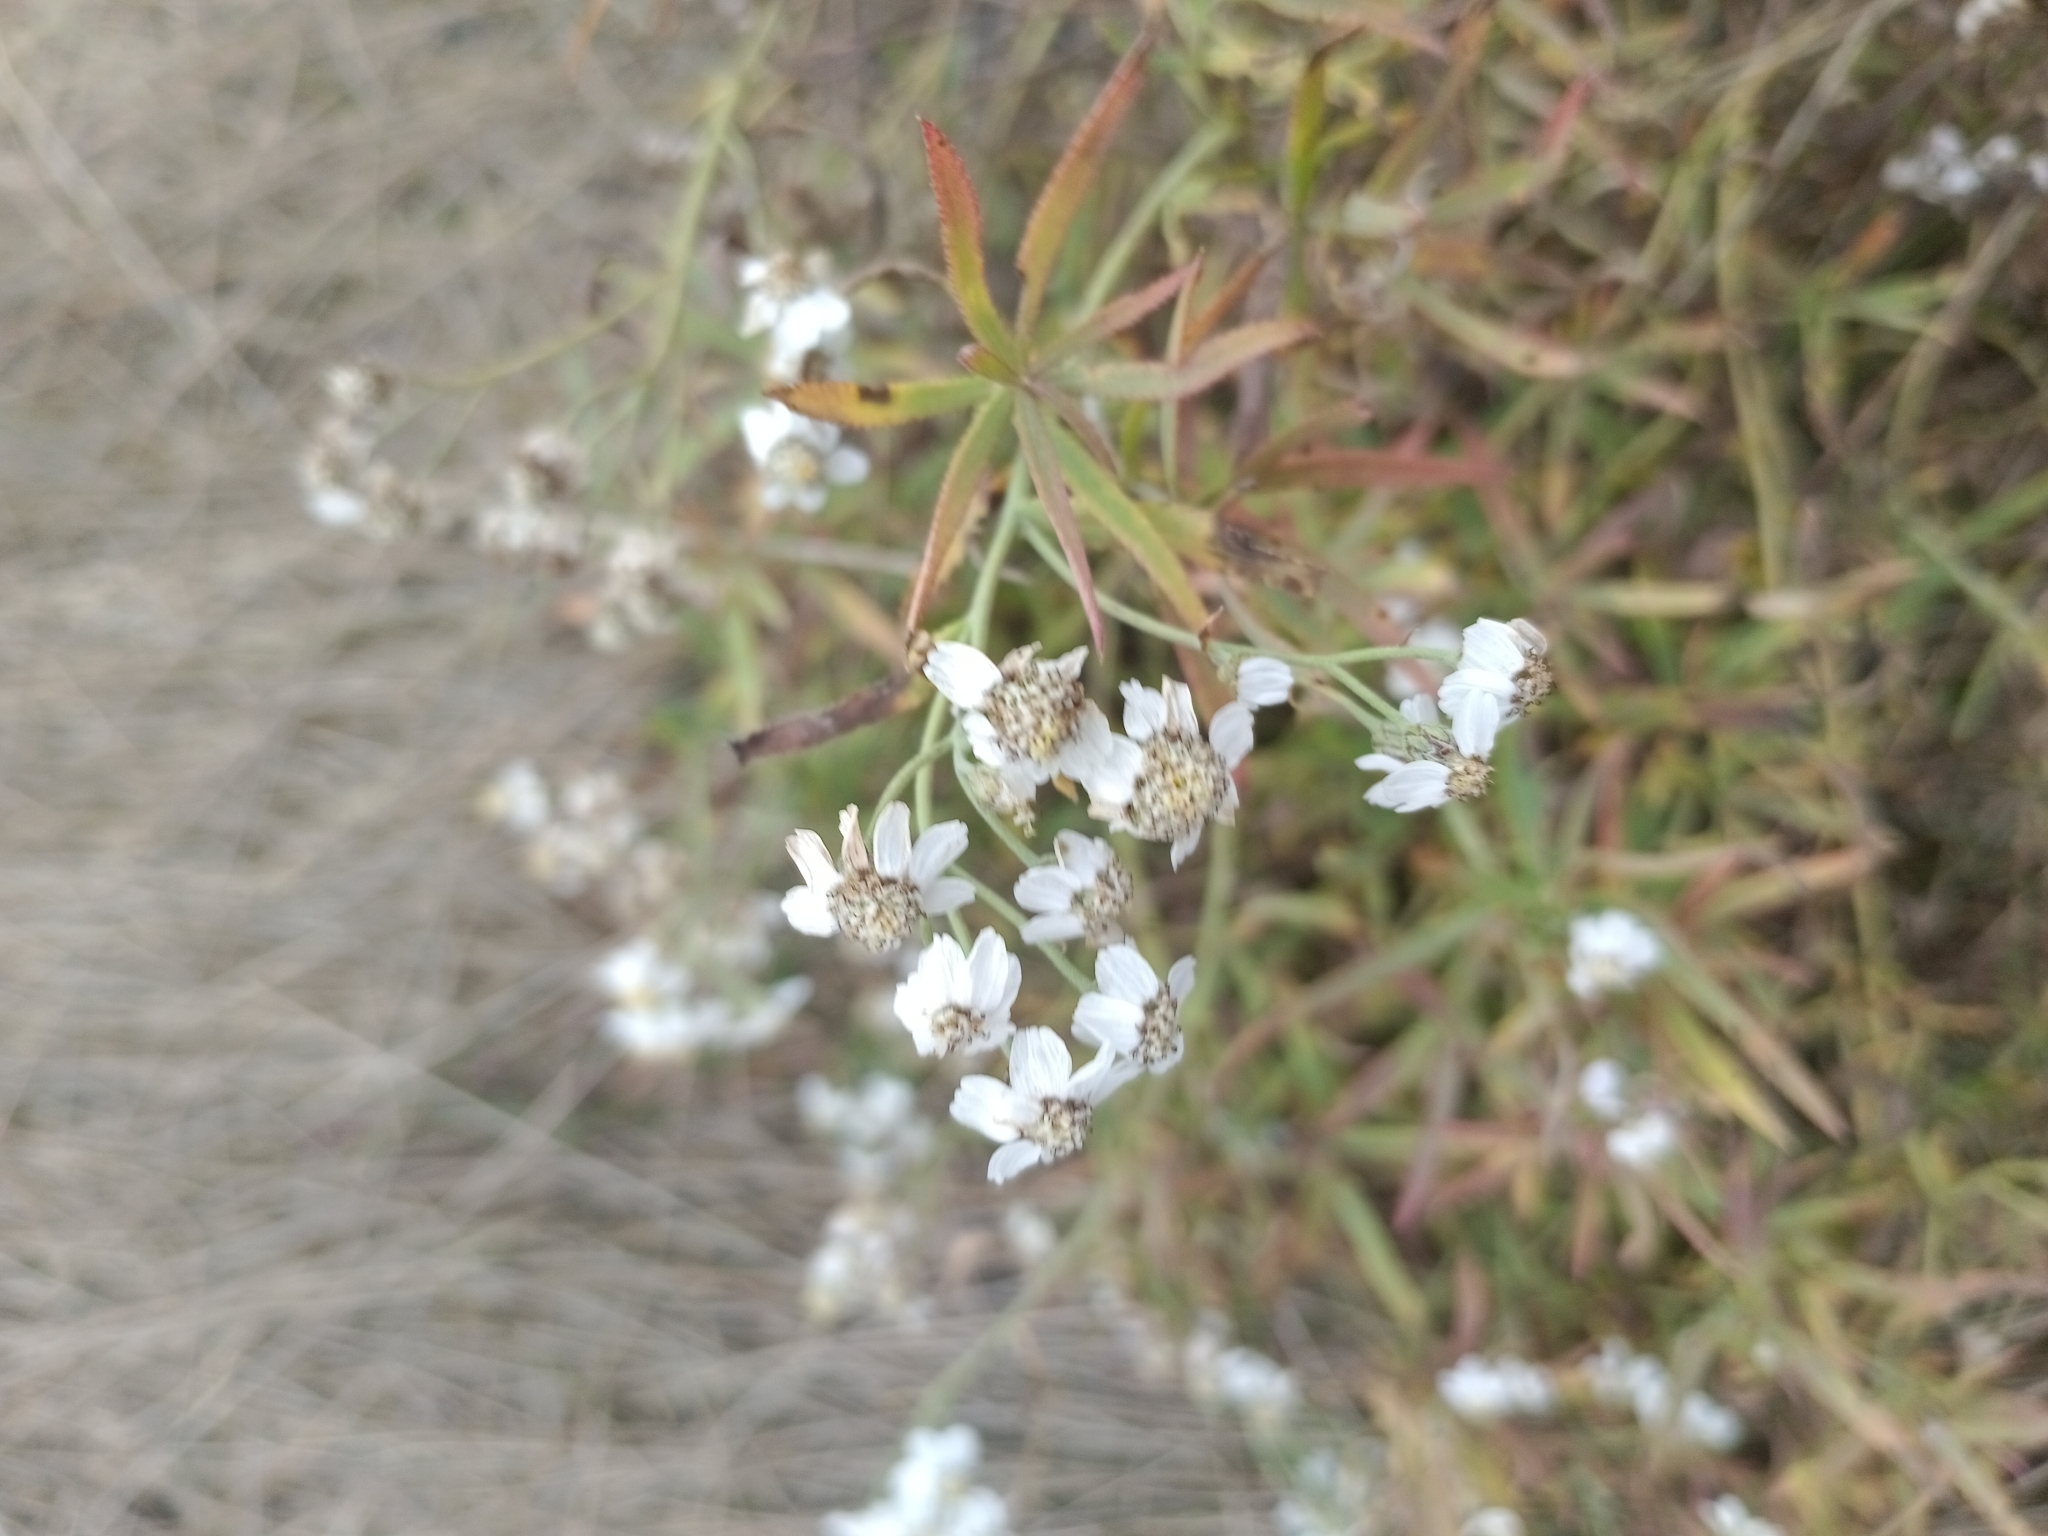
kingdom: Plantae
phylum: Tracheophyta
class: Magnoliopsida
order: Asterales
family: Asteraceae
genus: Achillea
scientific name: Achillea salicifolia
